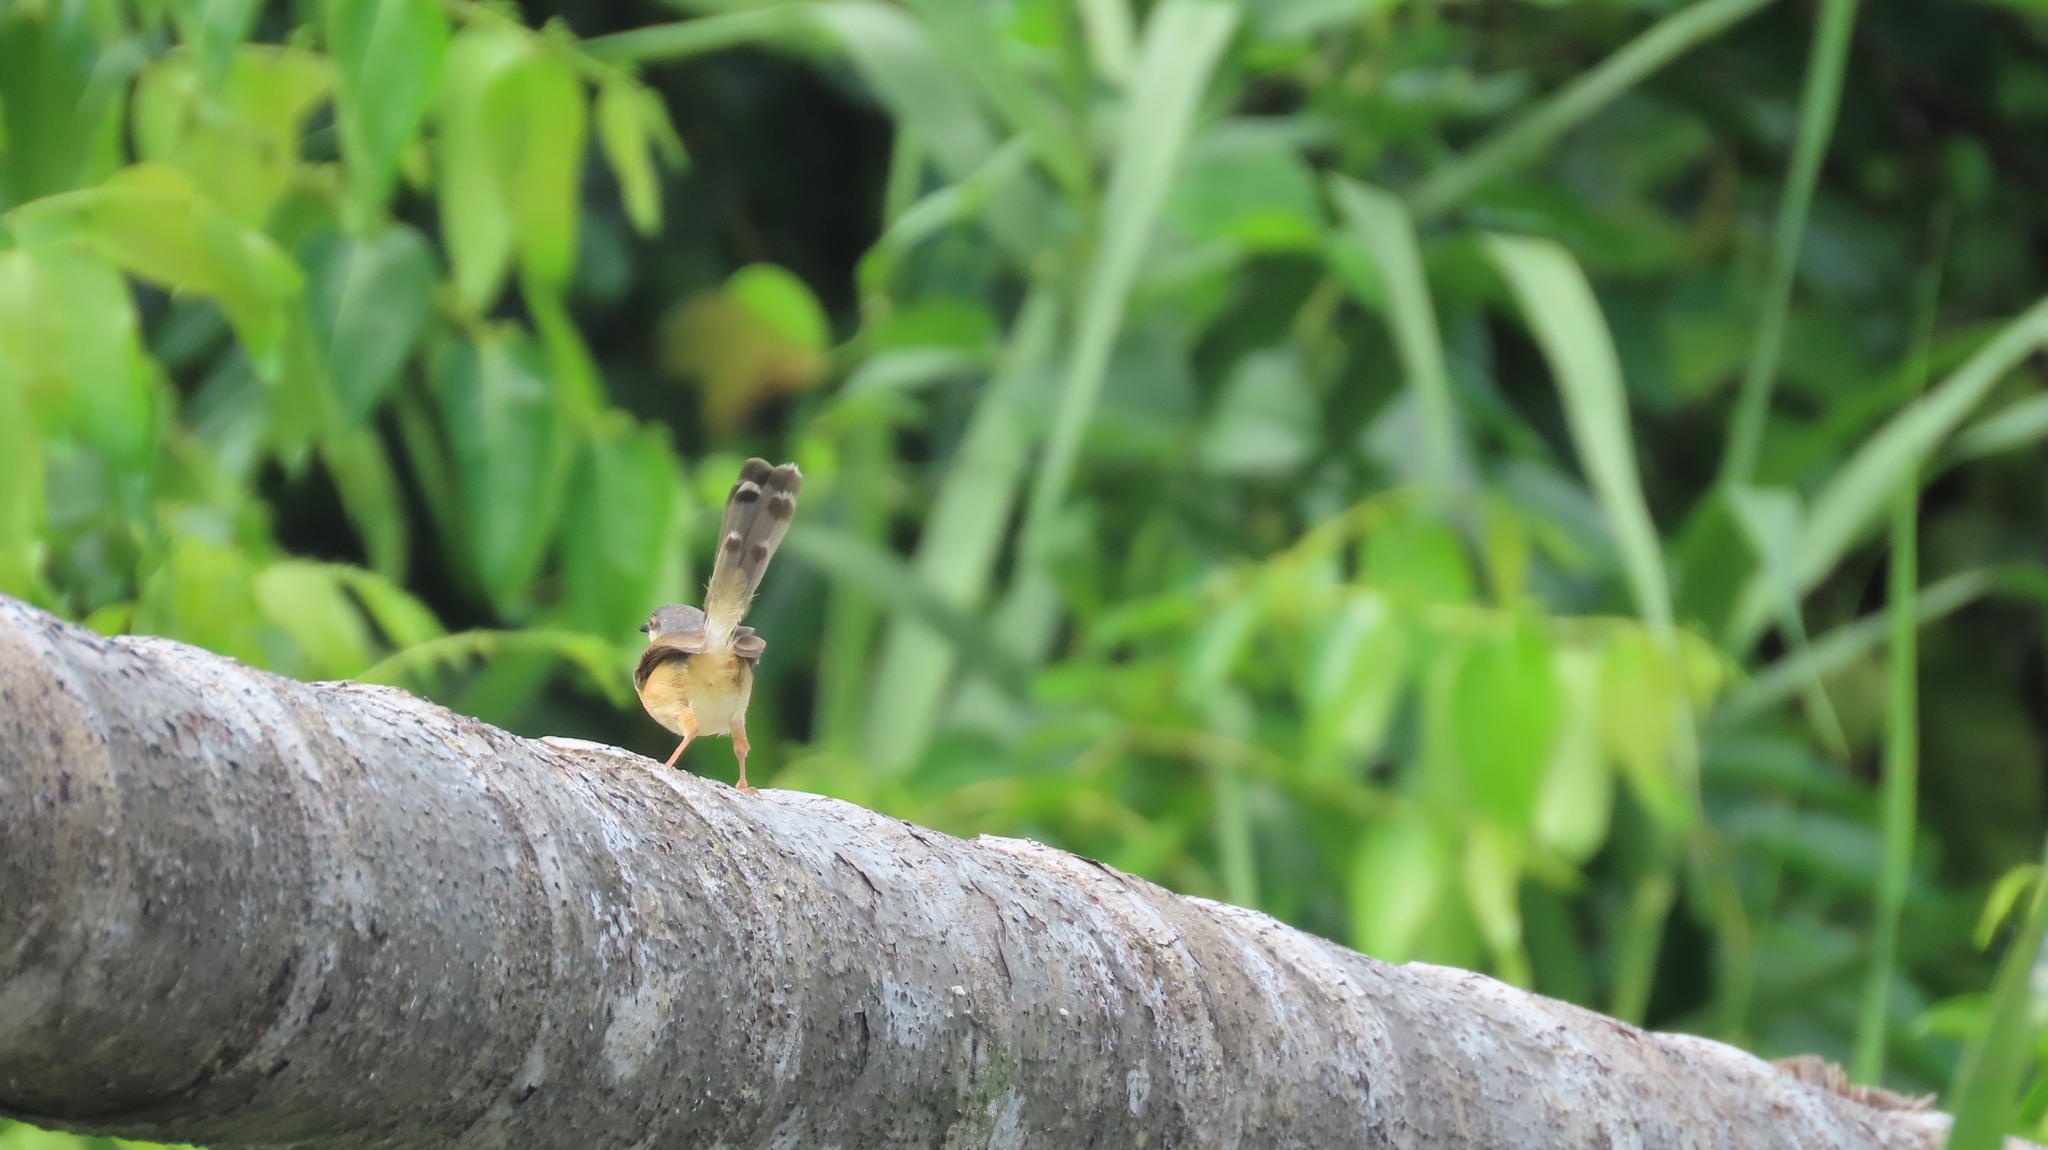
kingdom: Animalia
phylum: Chordata
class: Aves
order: Passeriformes
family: Cisticolidae
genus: Prinia
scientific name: Prinia socialis
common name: Ashy prinia
